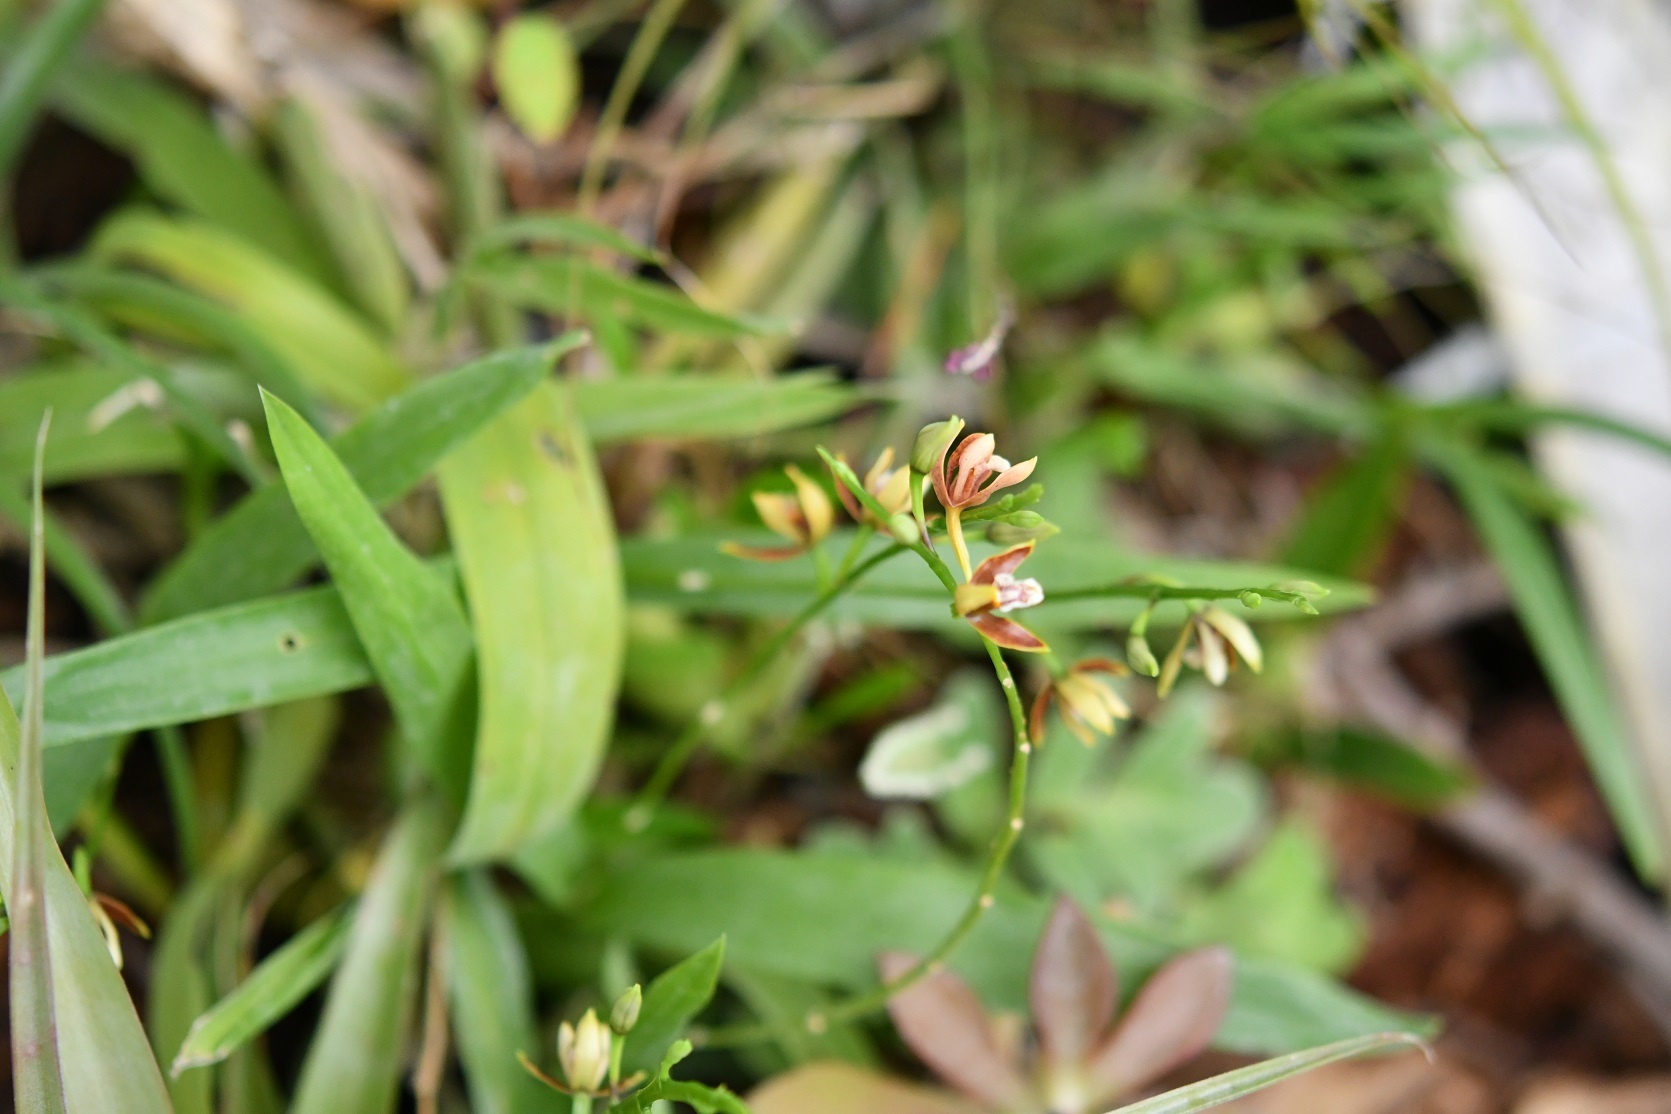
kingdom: Plantae
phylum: Tracheophyta
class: Liliopsida
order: Asparagales
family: Orchidaceae
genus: Prosthechea
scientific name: Prosthechea livida
